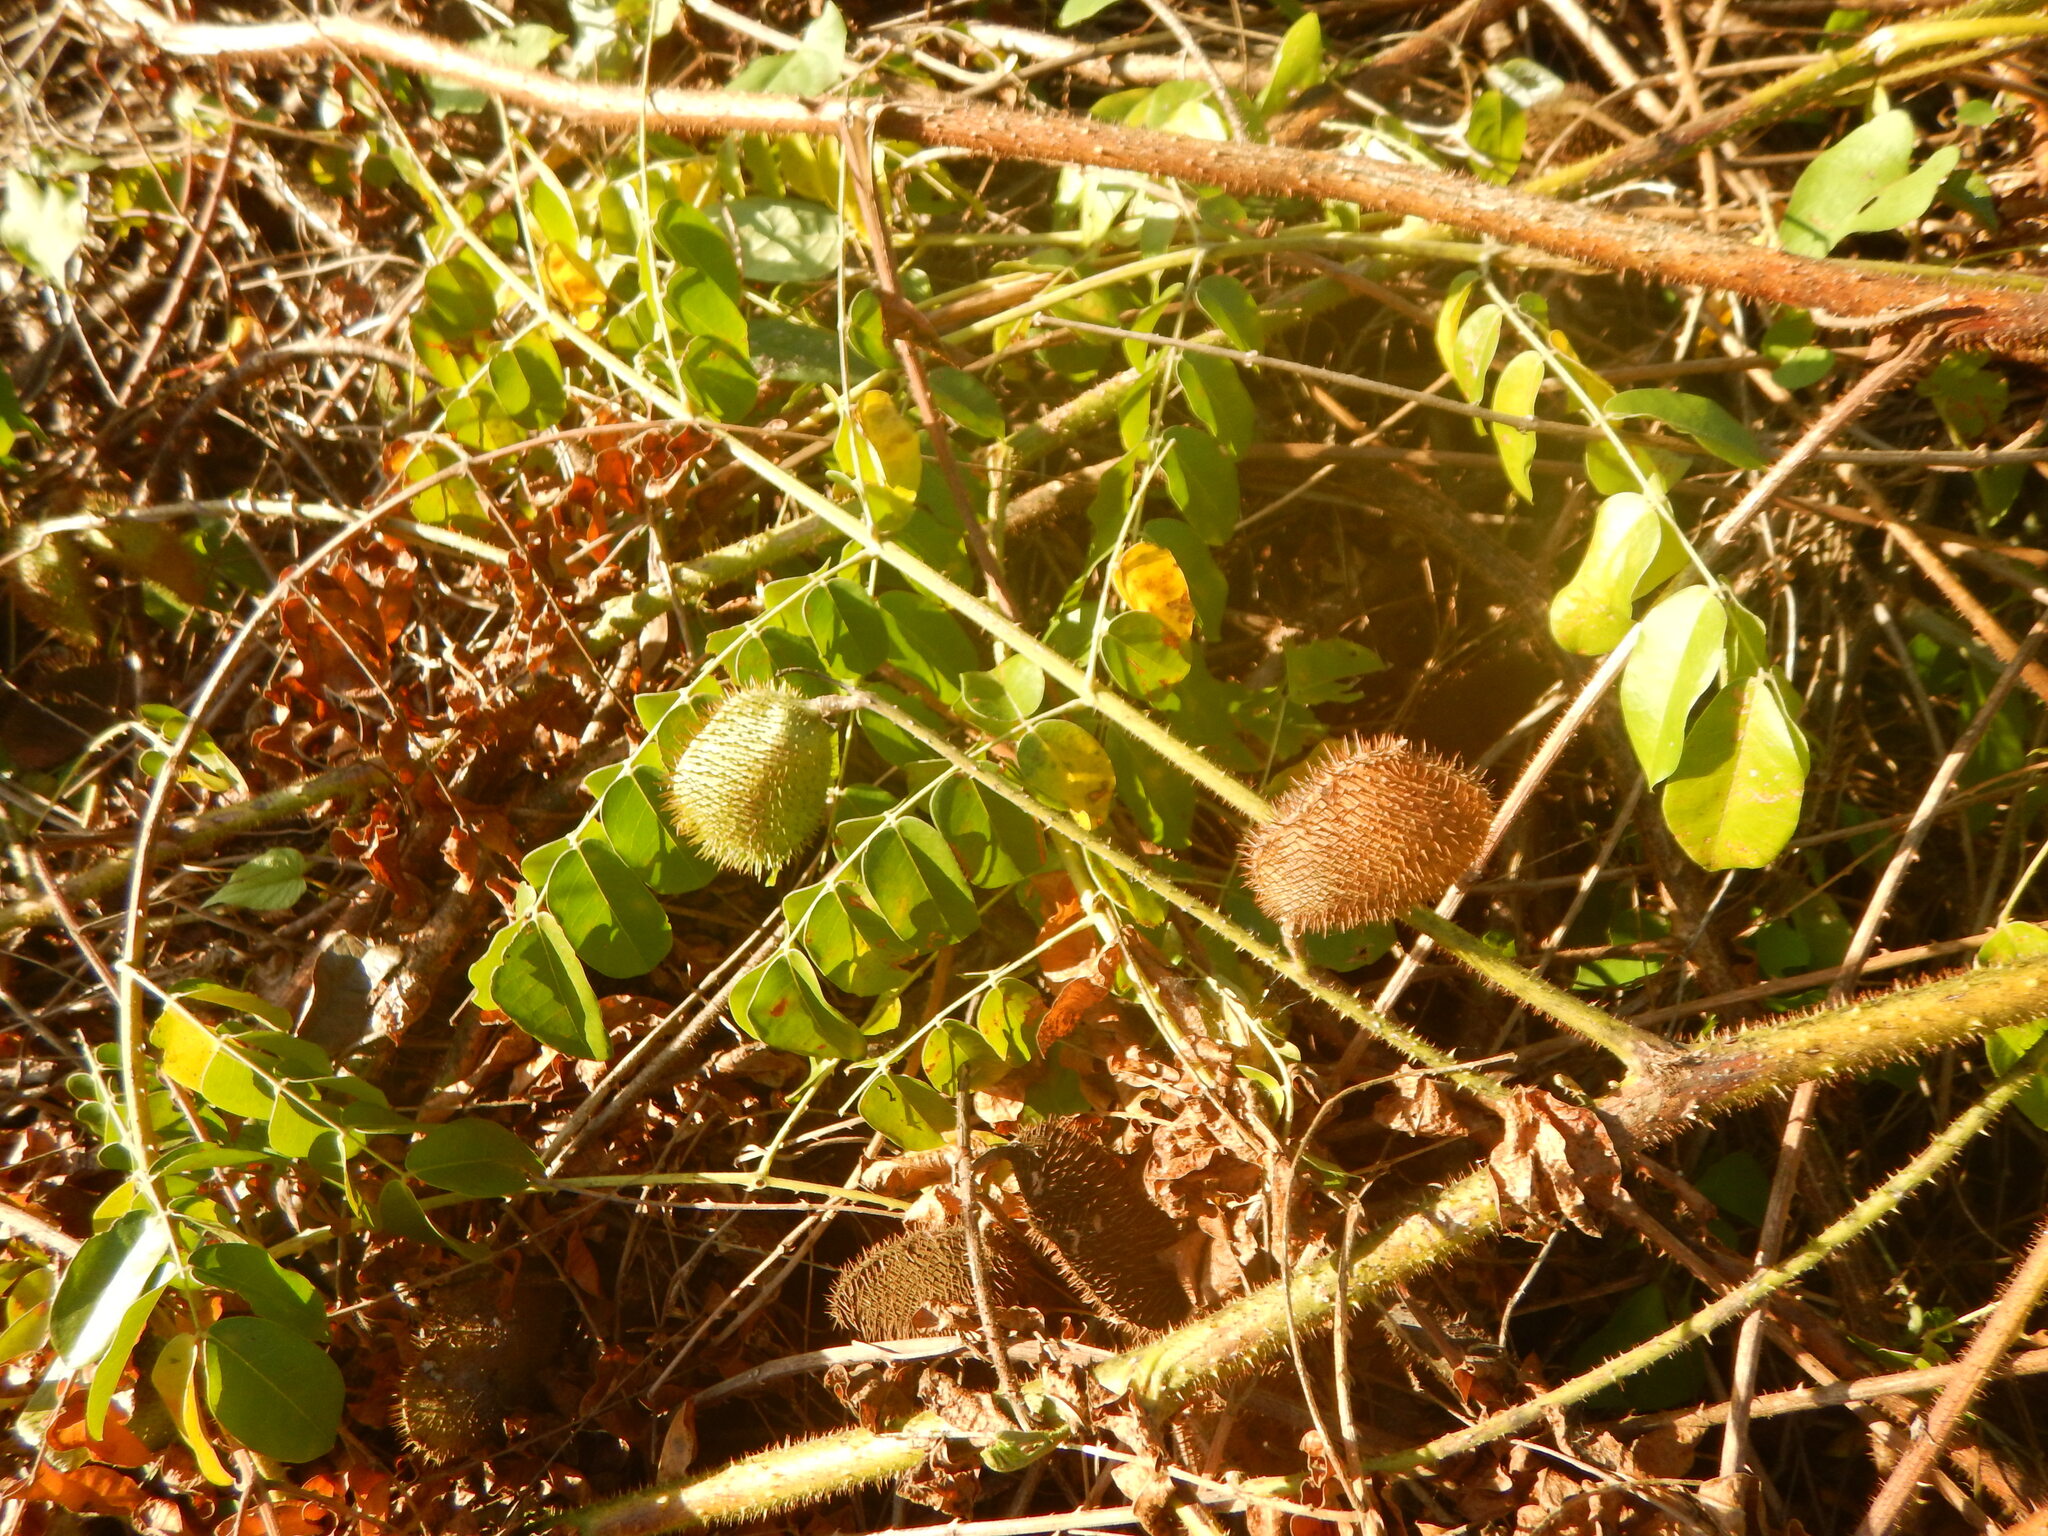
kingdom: Plantae
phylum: Tracheophyta
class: Magnoliopsida
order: Fabales
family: Fabaceae
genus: Guilandina
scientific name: Guilandina bonduc
